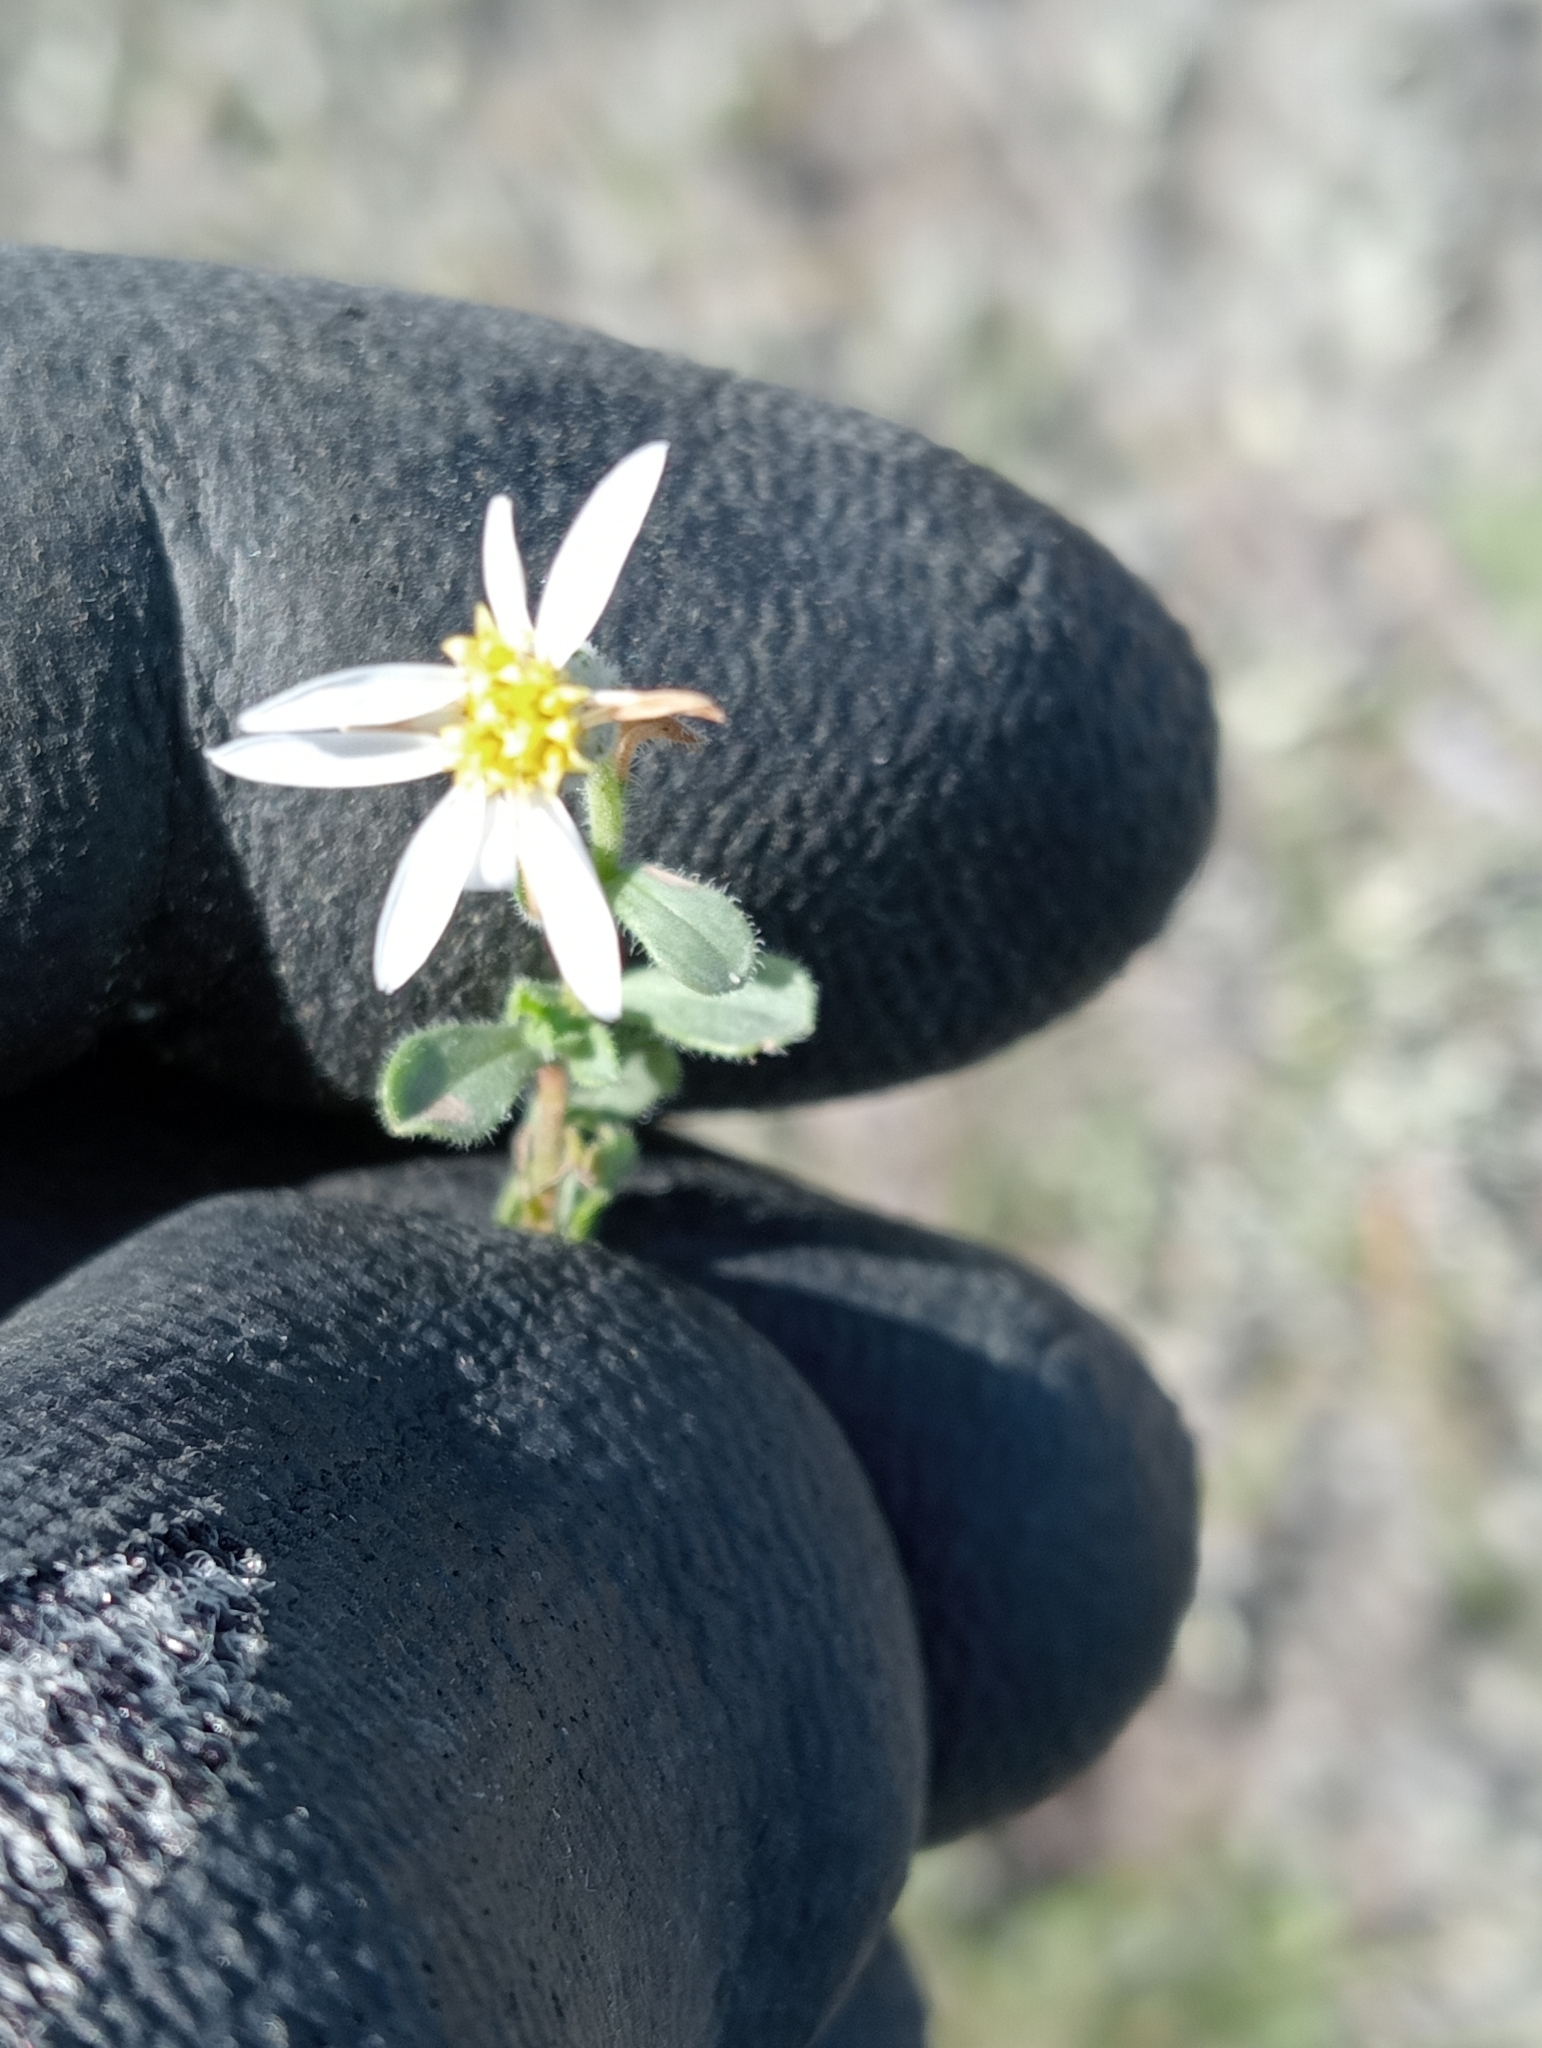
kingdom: Plantae
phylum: Tracheophyta
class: Magnoliopsida
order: Asterales
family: Asteraceae
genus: Vittadinia
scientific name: Vittadinia australis
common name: White fuzzweed
